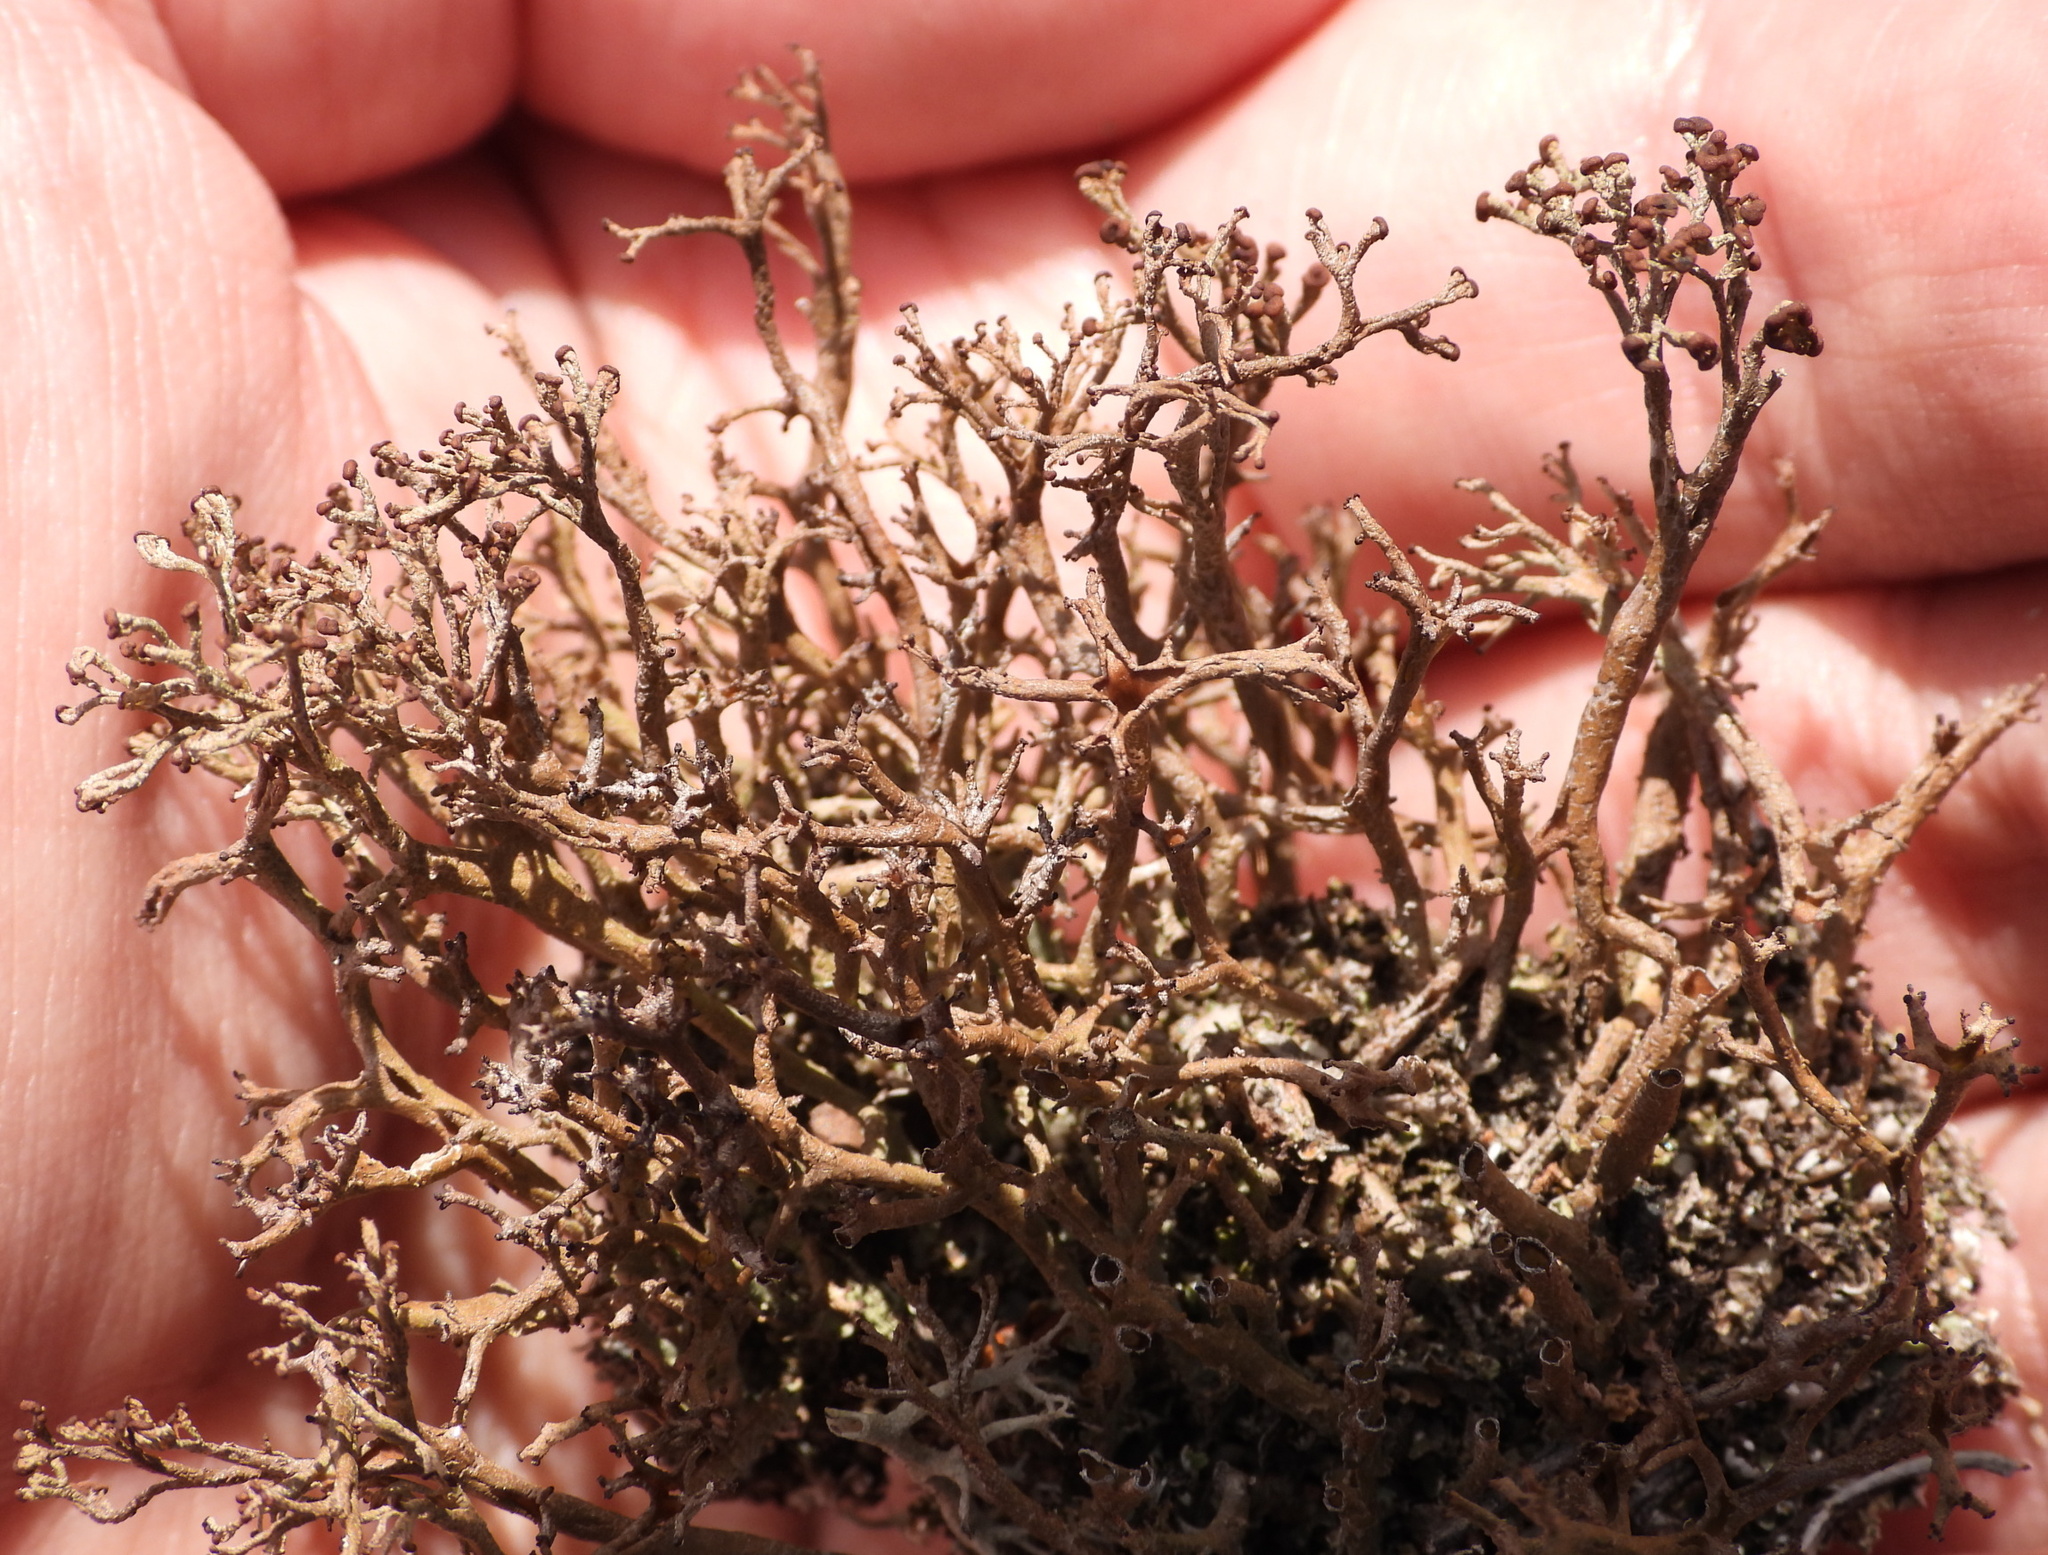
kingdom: Fungi
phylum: Ascomycota
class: Lecanoromycetes
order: Lecanorales
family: Cladoniaceae
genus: Cladonia
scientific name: Cladonia furcata
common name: Many-forked cladonia
